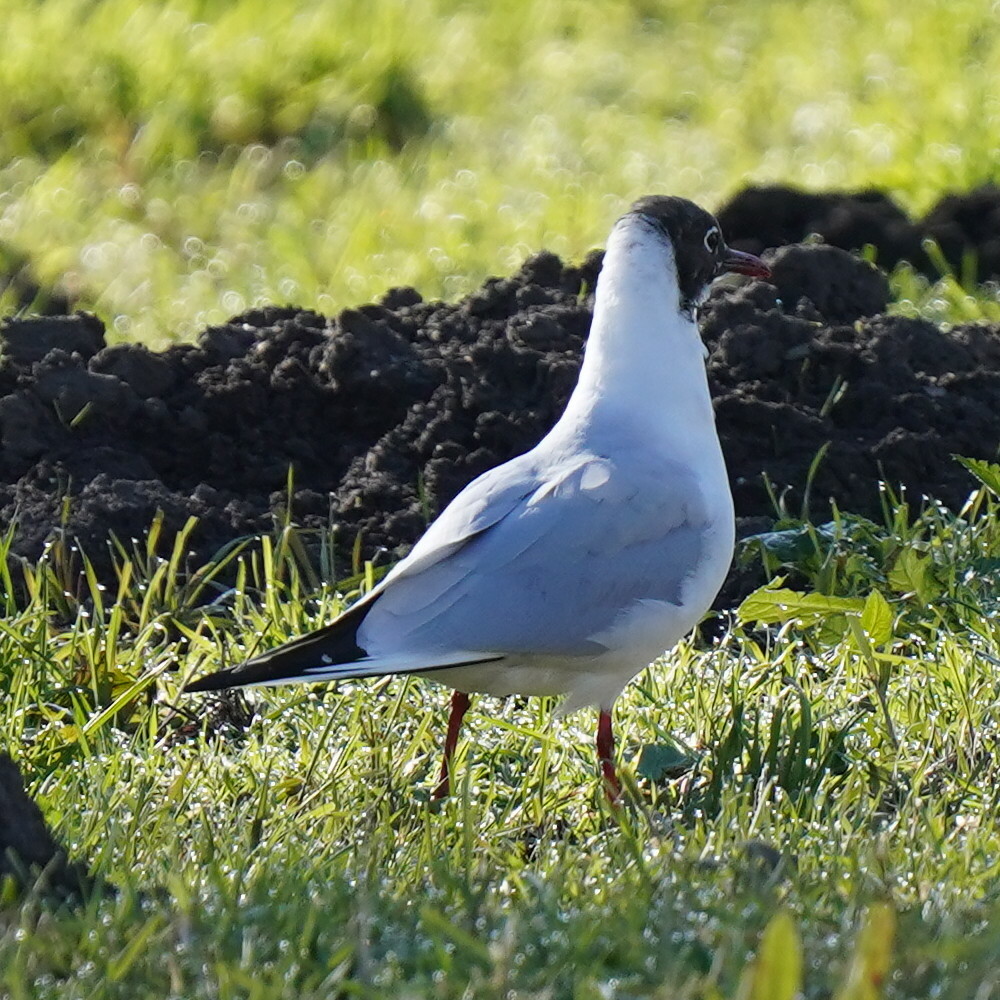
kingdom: Animalia
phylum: Chordata
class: Aves
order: Charadriiformes
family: Laridae
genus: Chroicocephalus
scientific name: Chroicocephalus ridibundus
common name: Black-headed gull
